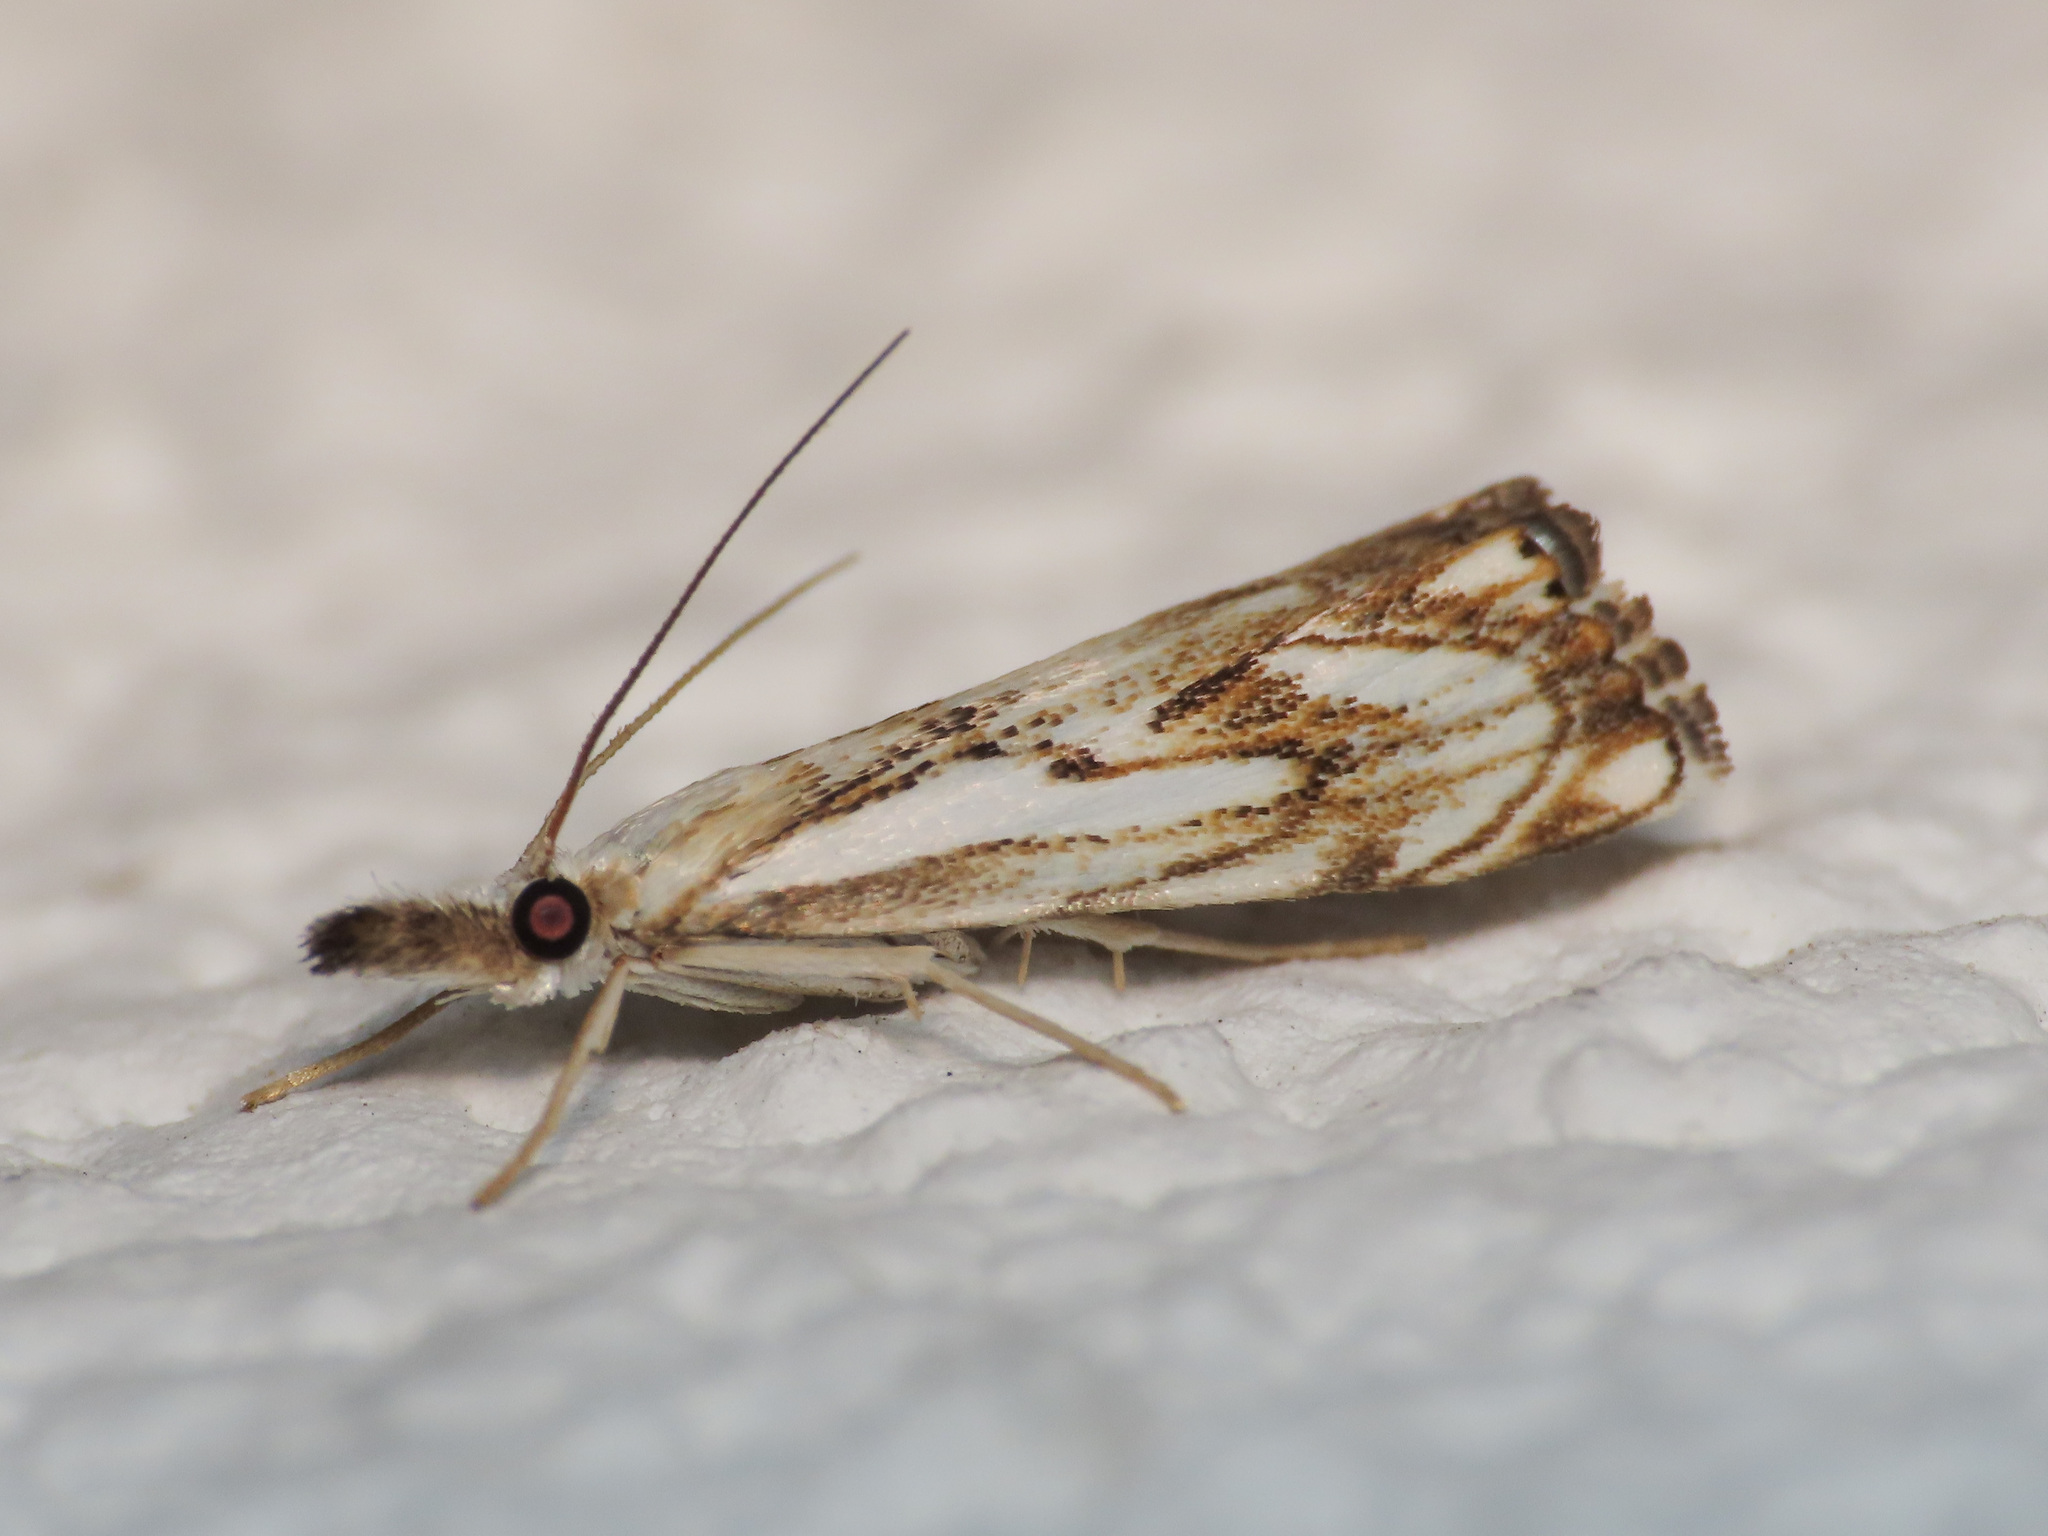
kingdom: Animalia
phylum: Arthropoda
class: Insecta
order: Lepidoptera
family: Crambidae
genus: Catoptria
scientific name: Catoptria falsella
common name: Chequered grass-veneer
